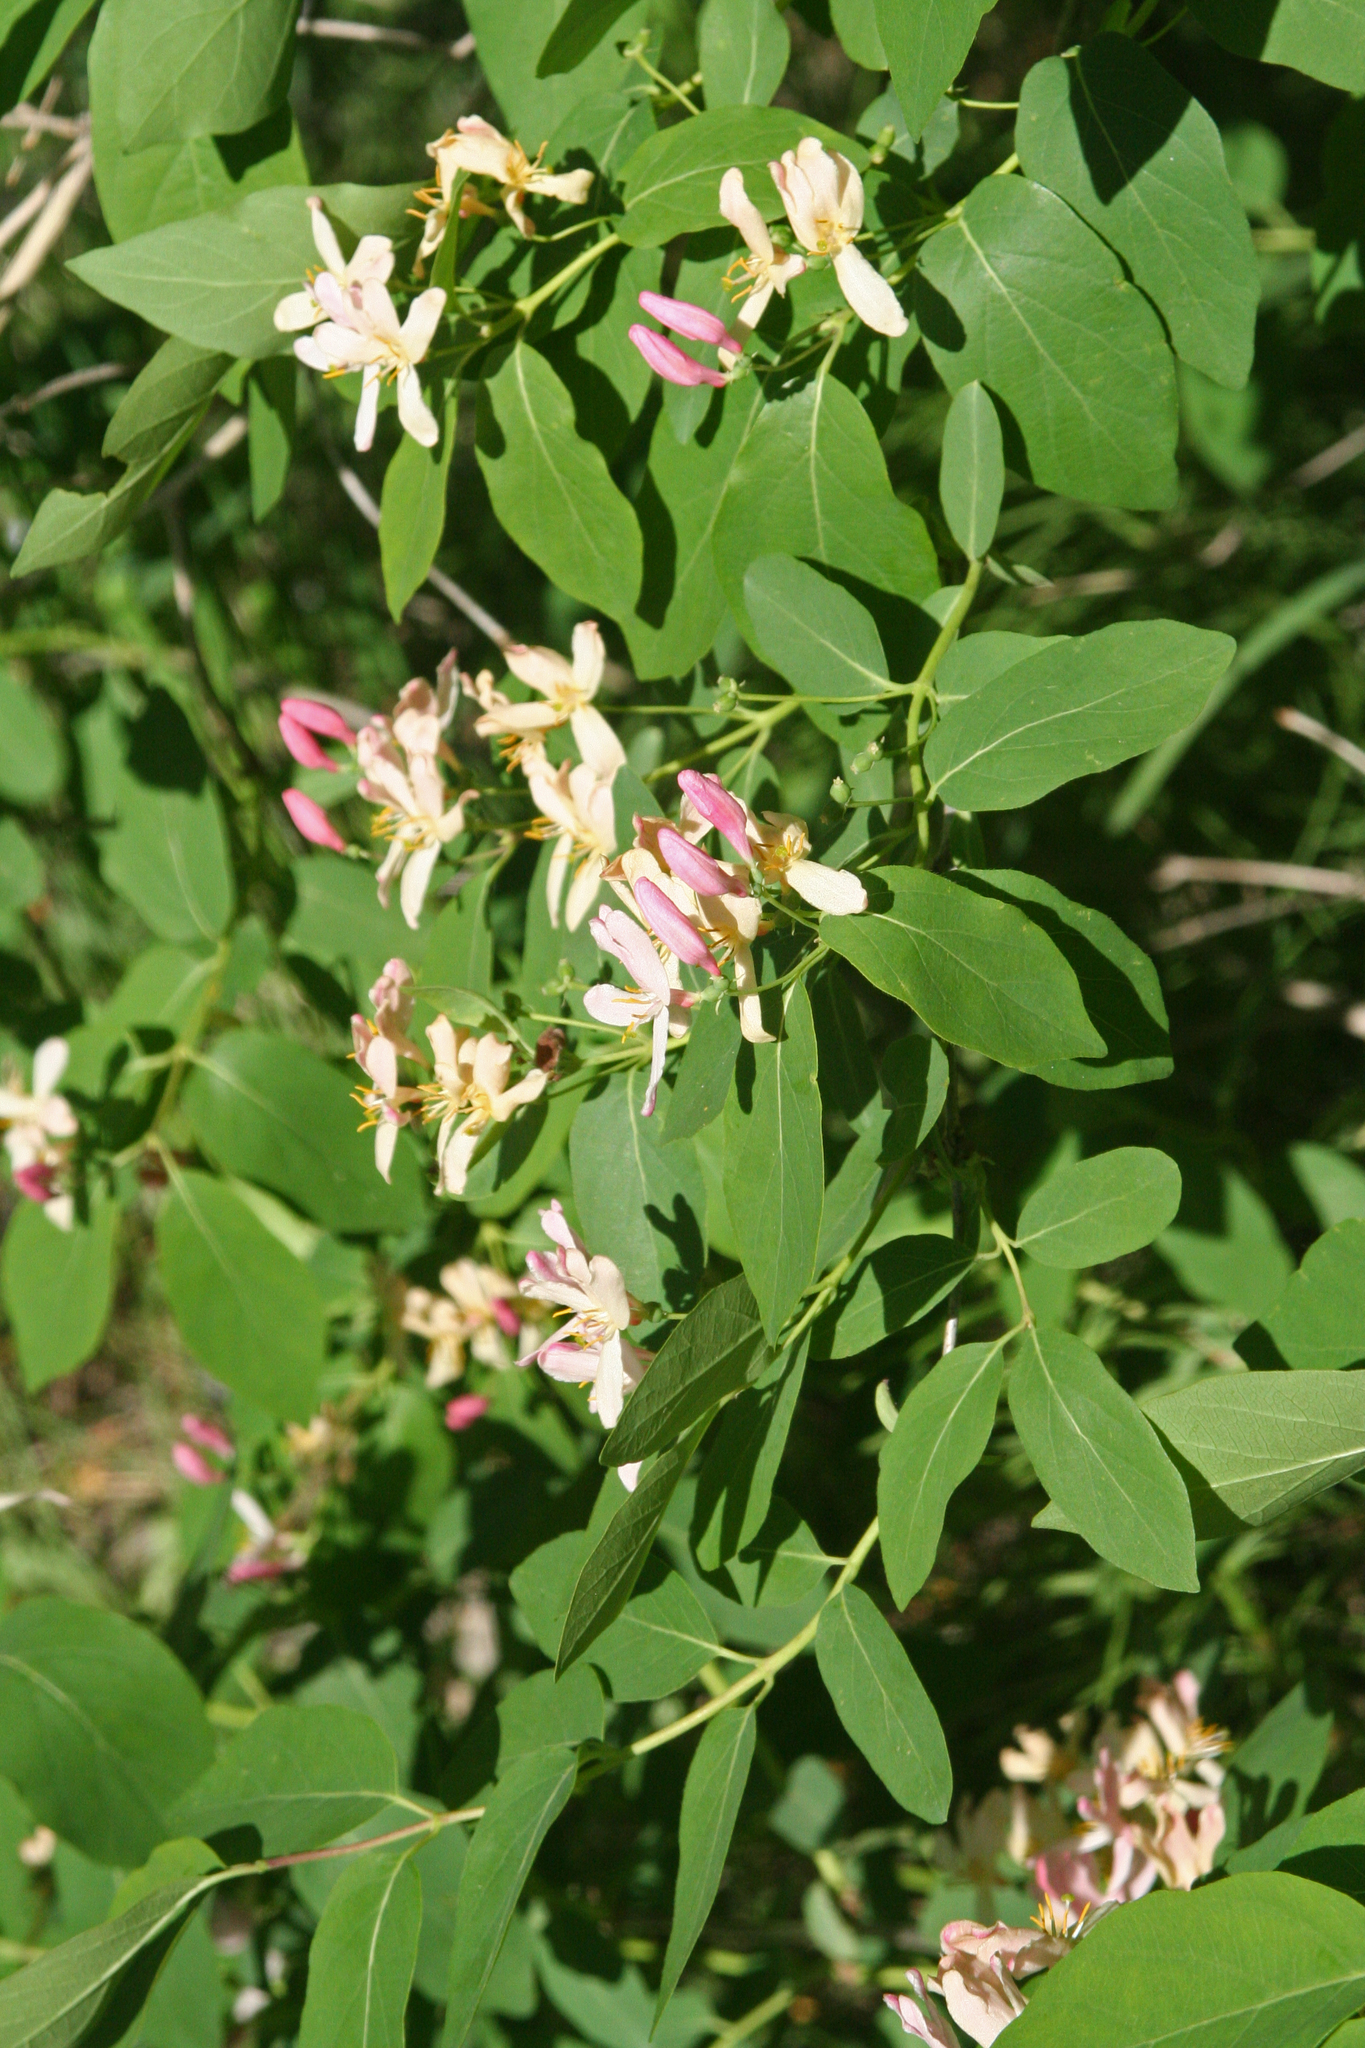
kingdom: Plantae
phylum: Tracheophyta
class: Magnoliopsida
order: Dipsacales
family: Caprifoliaceae
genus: Lonicera
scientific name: Lonicera tatarica
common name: Tatarian honeysuckle
